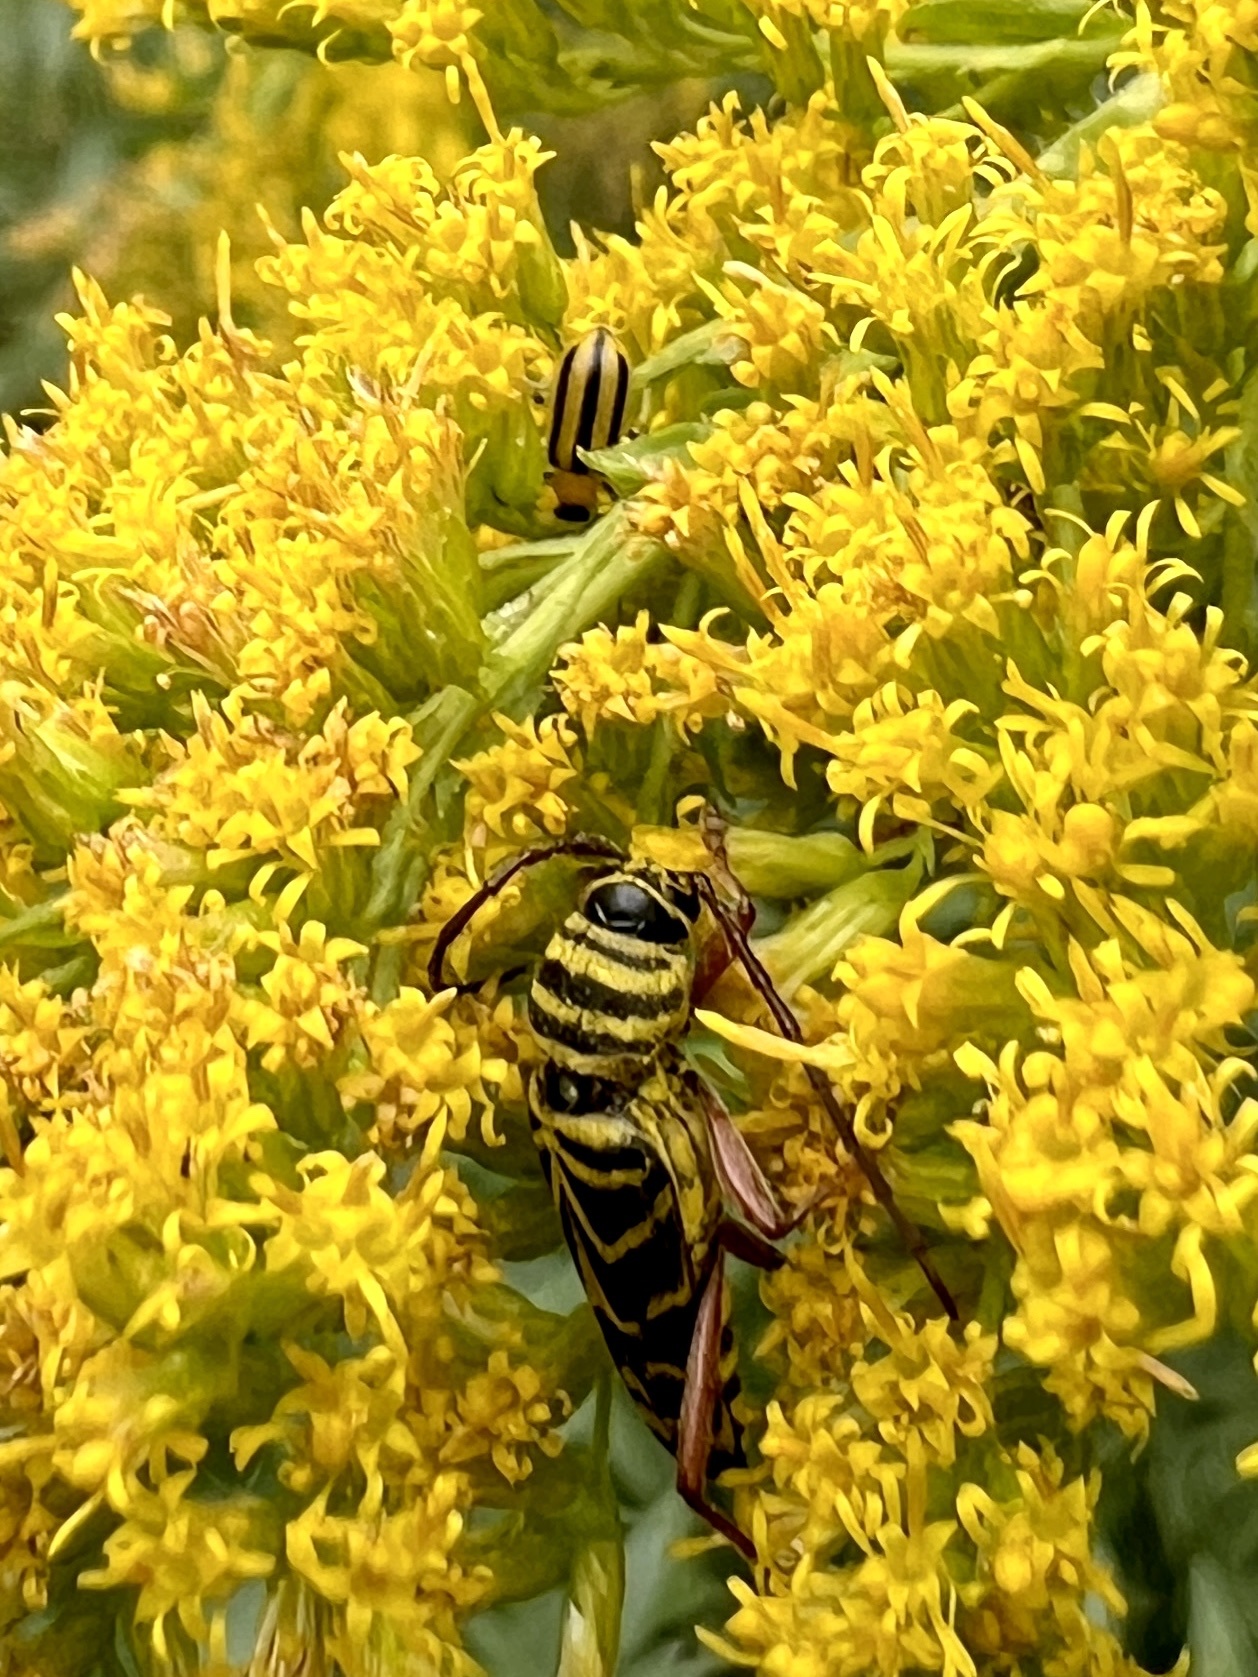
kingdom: Animalia
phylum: Arthropoda
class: Insecta
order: Coleoptera
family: Cerambycidae
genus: Megacyllene
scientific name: Megacyllene robiniae
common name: Locust borer
